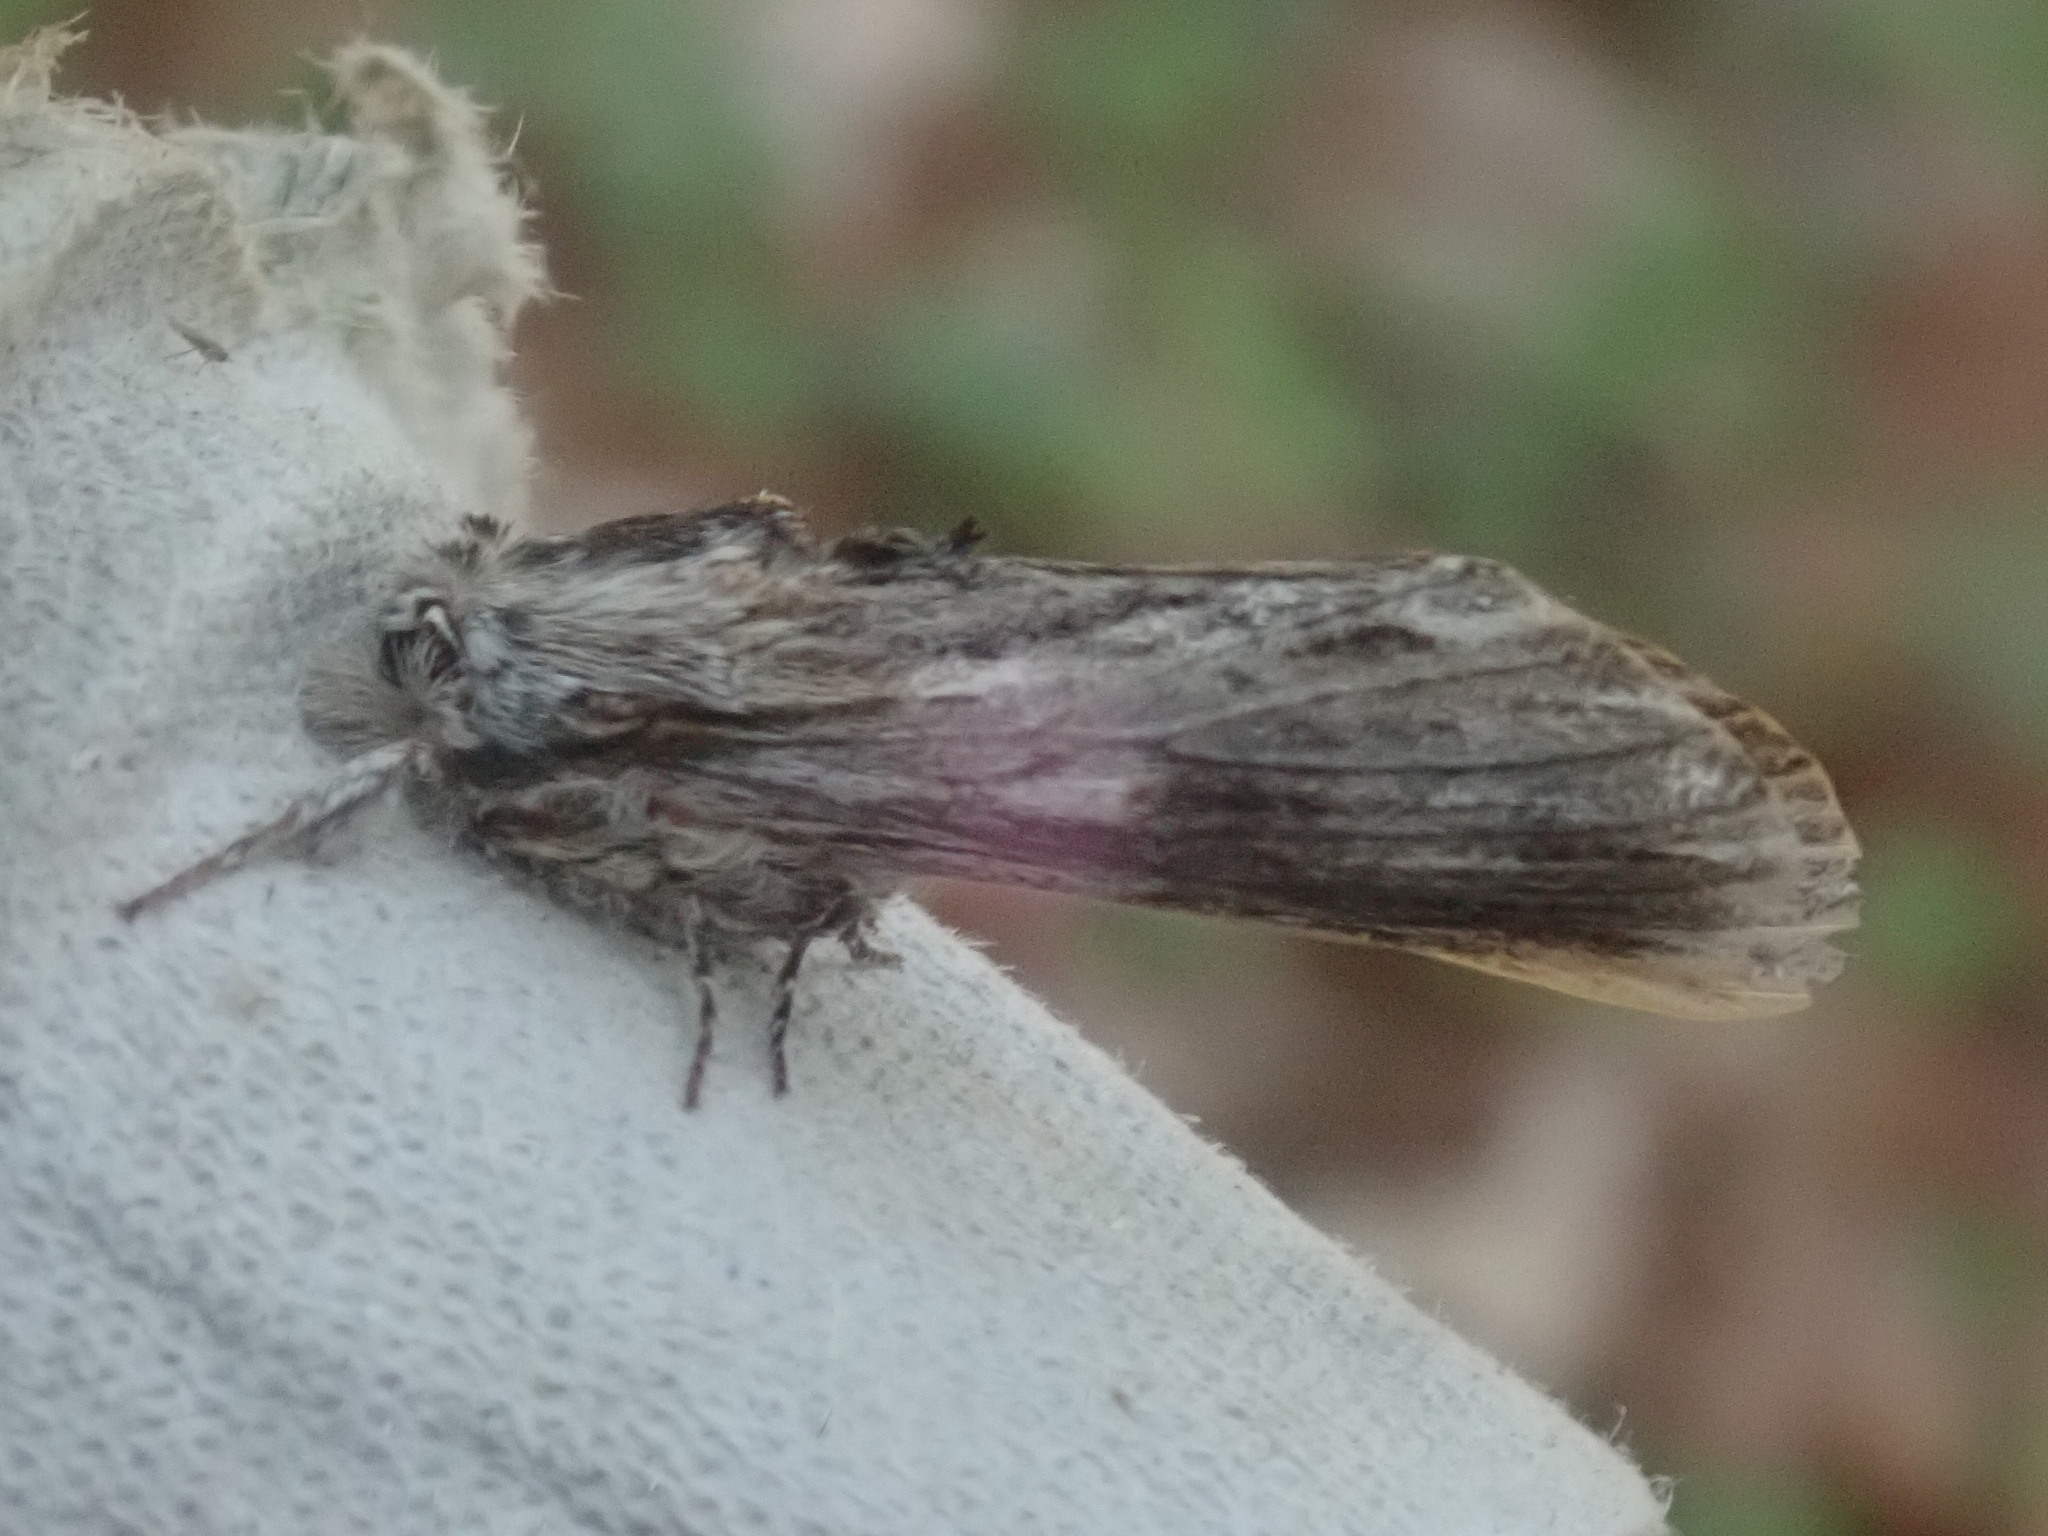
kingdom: Animalia
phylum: Arthropoda
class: Insecta
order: Lepidoptera
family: Notodontidae
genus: Oligocentria
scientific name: Oligocentria Ianassa lignicolor
